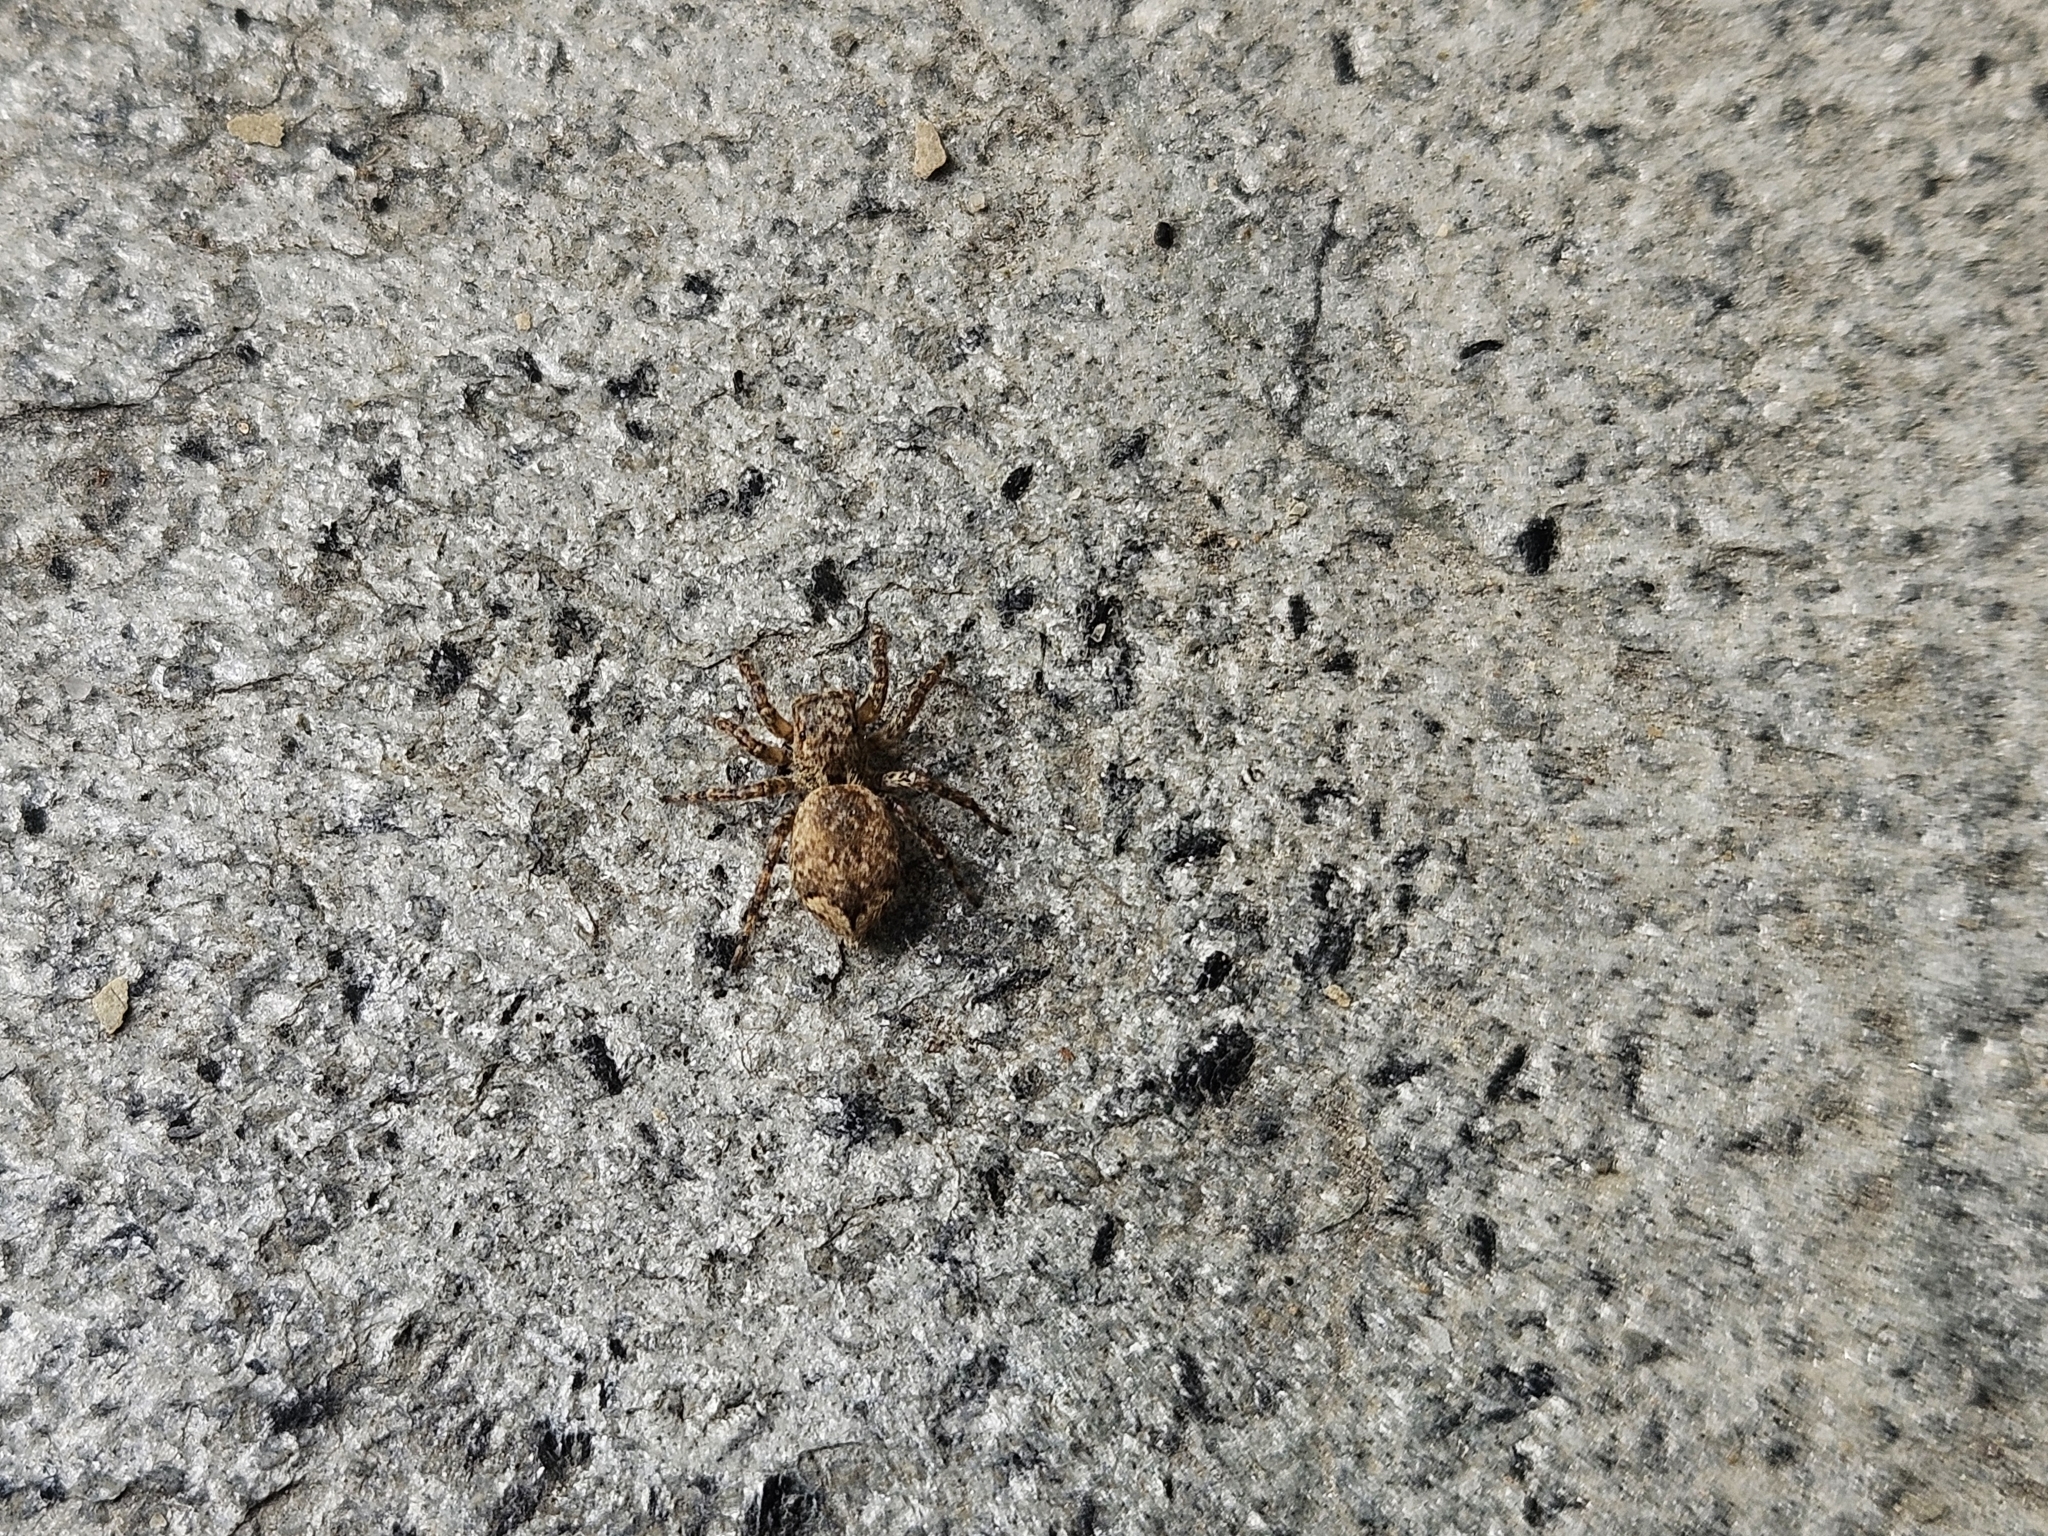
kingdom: Animalia
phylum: Arthropoda
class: Arachnida
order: Araneae
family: Salticidae
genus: Mexigonus
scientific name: Mexigonus minutus
